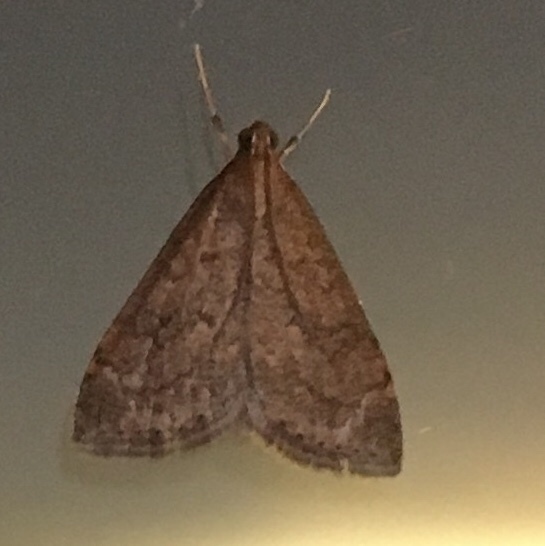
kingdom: Animalia
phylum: Arthropoda
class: Insecta
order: Lepidoptera
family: Crambidae
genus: Udea
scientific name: Udea rubigalis
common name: Celery leaftier moth
